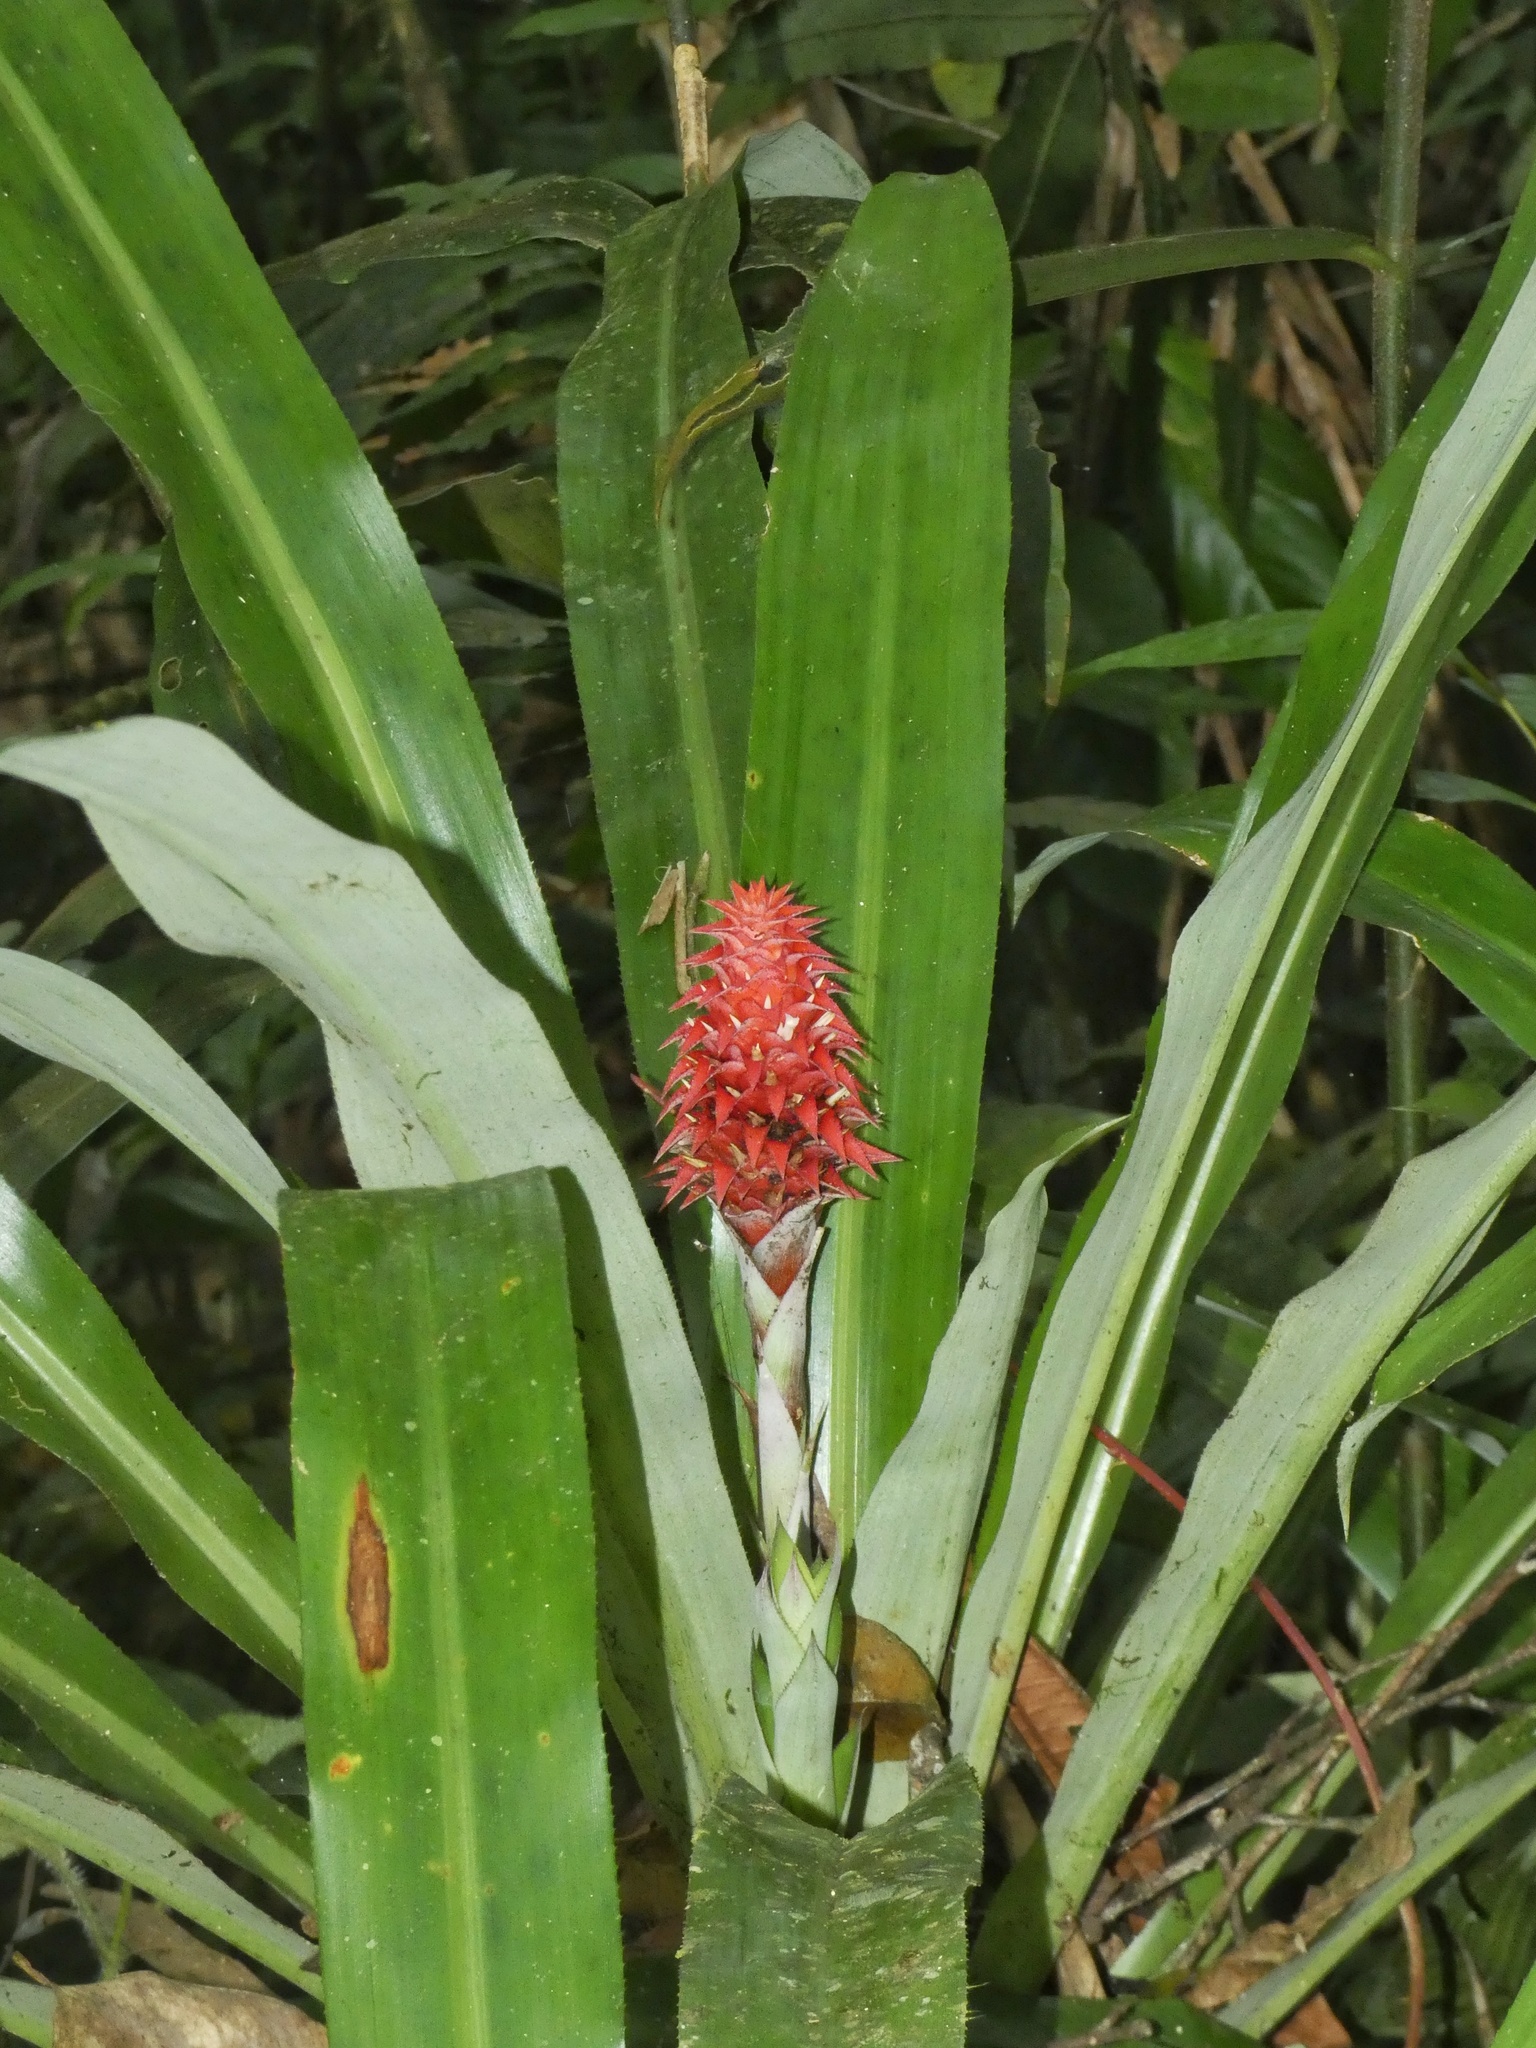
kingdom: Plantae
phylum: Tracheophyta
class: Liliopsida
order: Poales
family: Bromeliaceae
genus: Ronnbergia
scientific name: Ronnbergia veitchii
